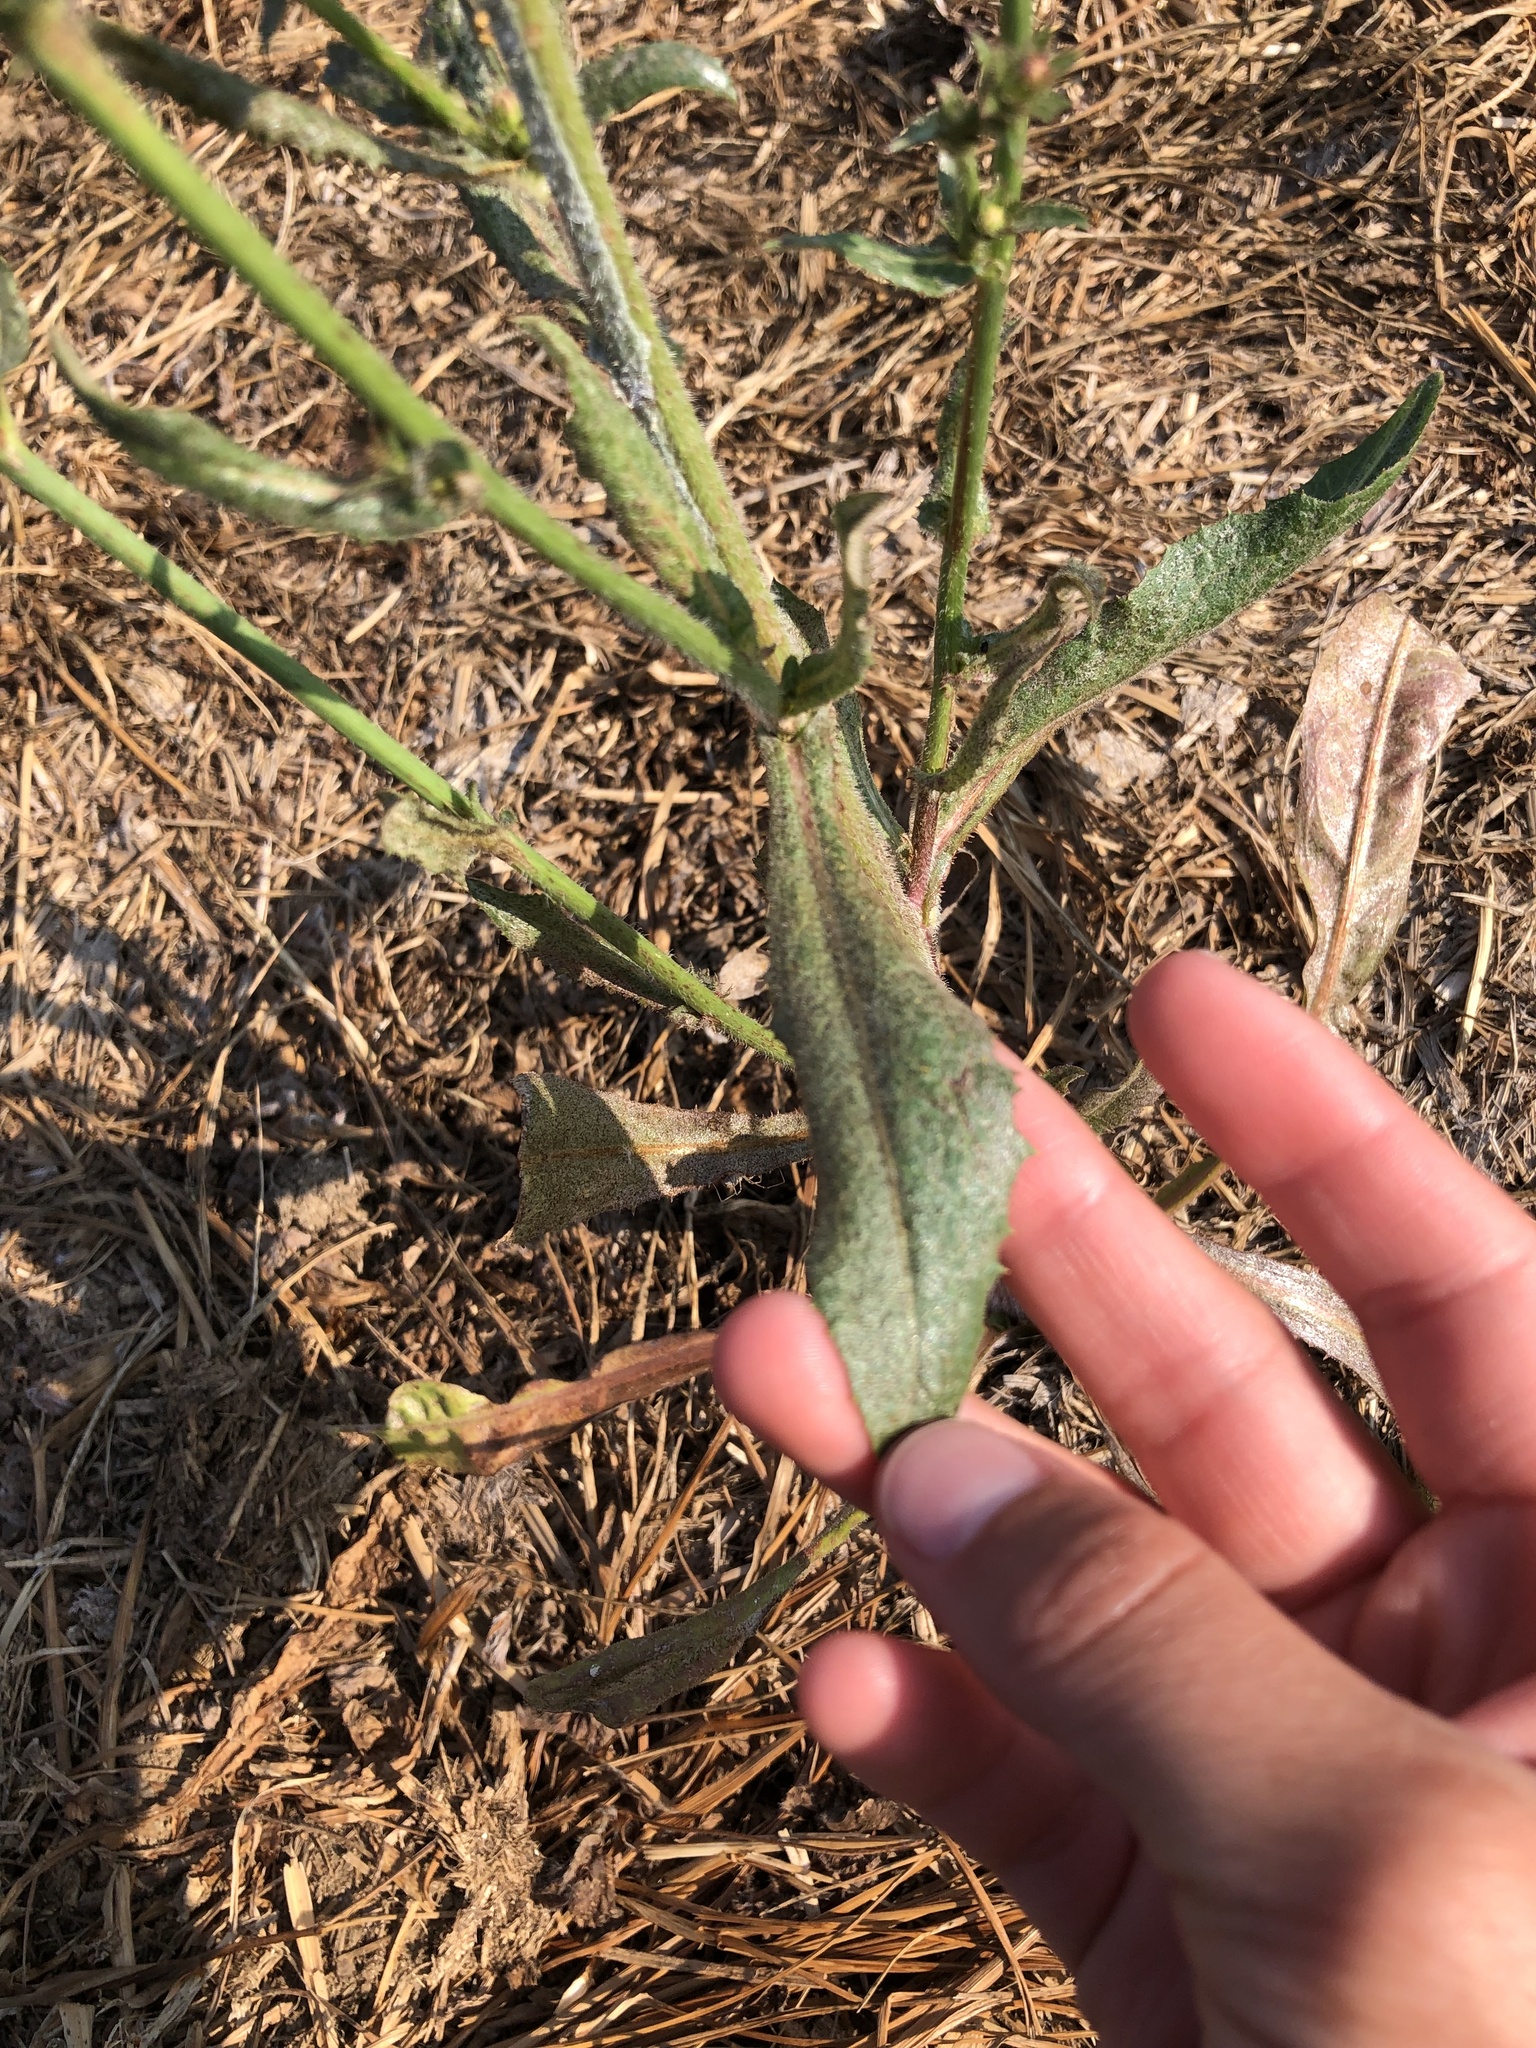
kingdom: Plantae
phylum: Tracheophyta
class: Magnoliopsida
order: Asterales
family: Asteraceae
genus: Cichorium
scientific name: Cichorium intybus
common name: Chicory
